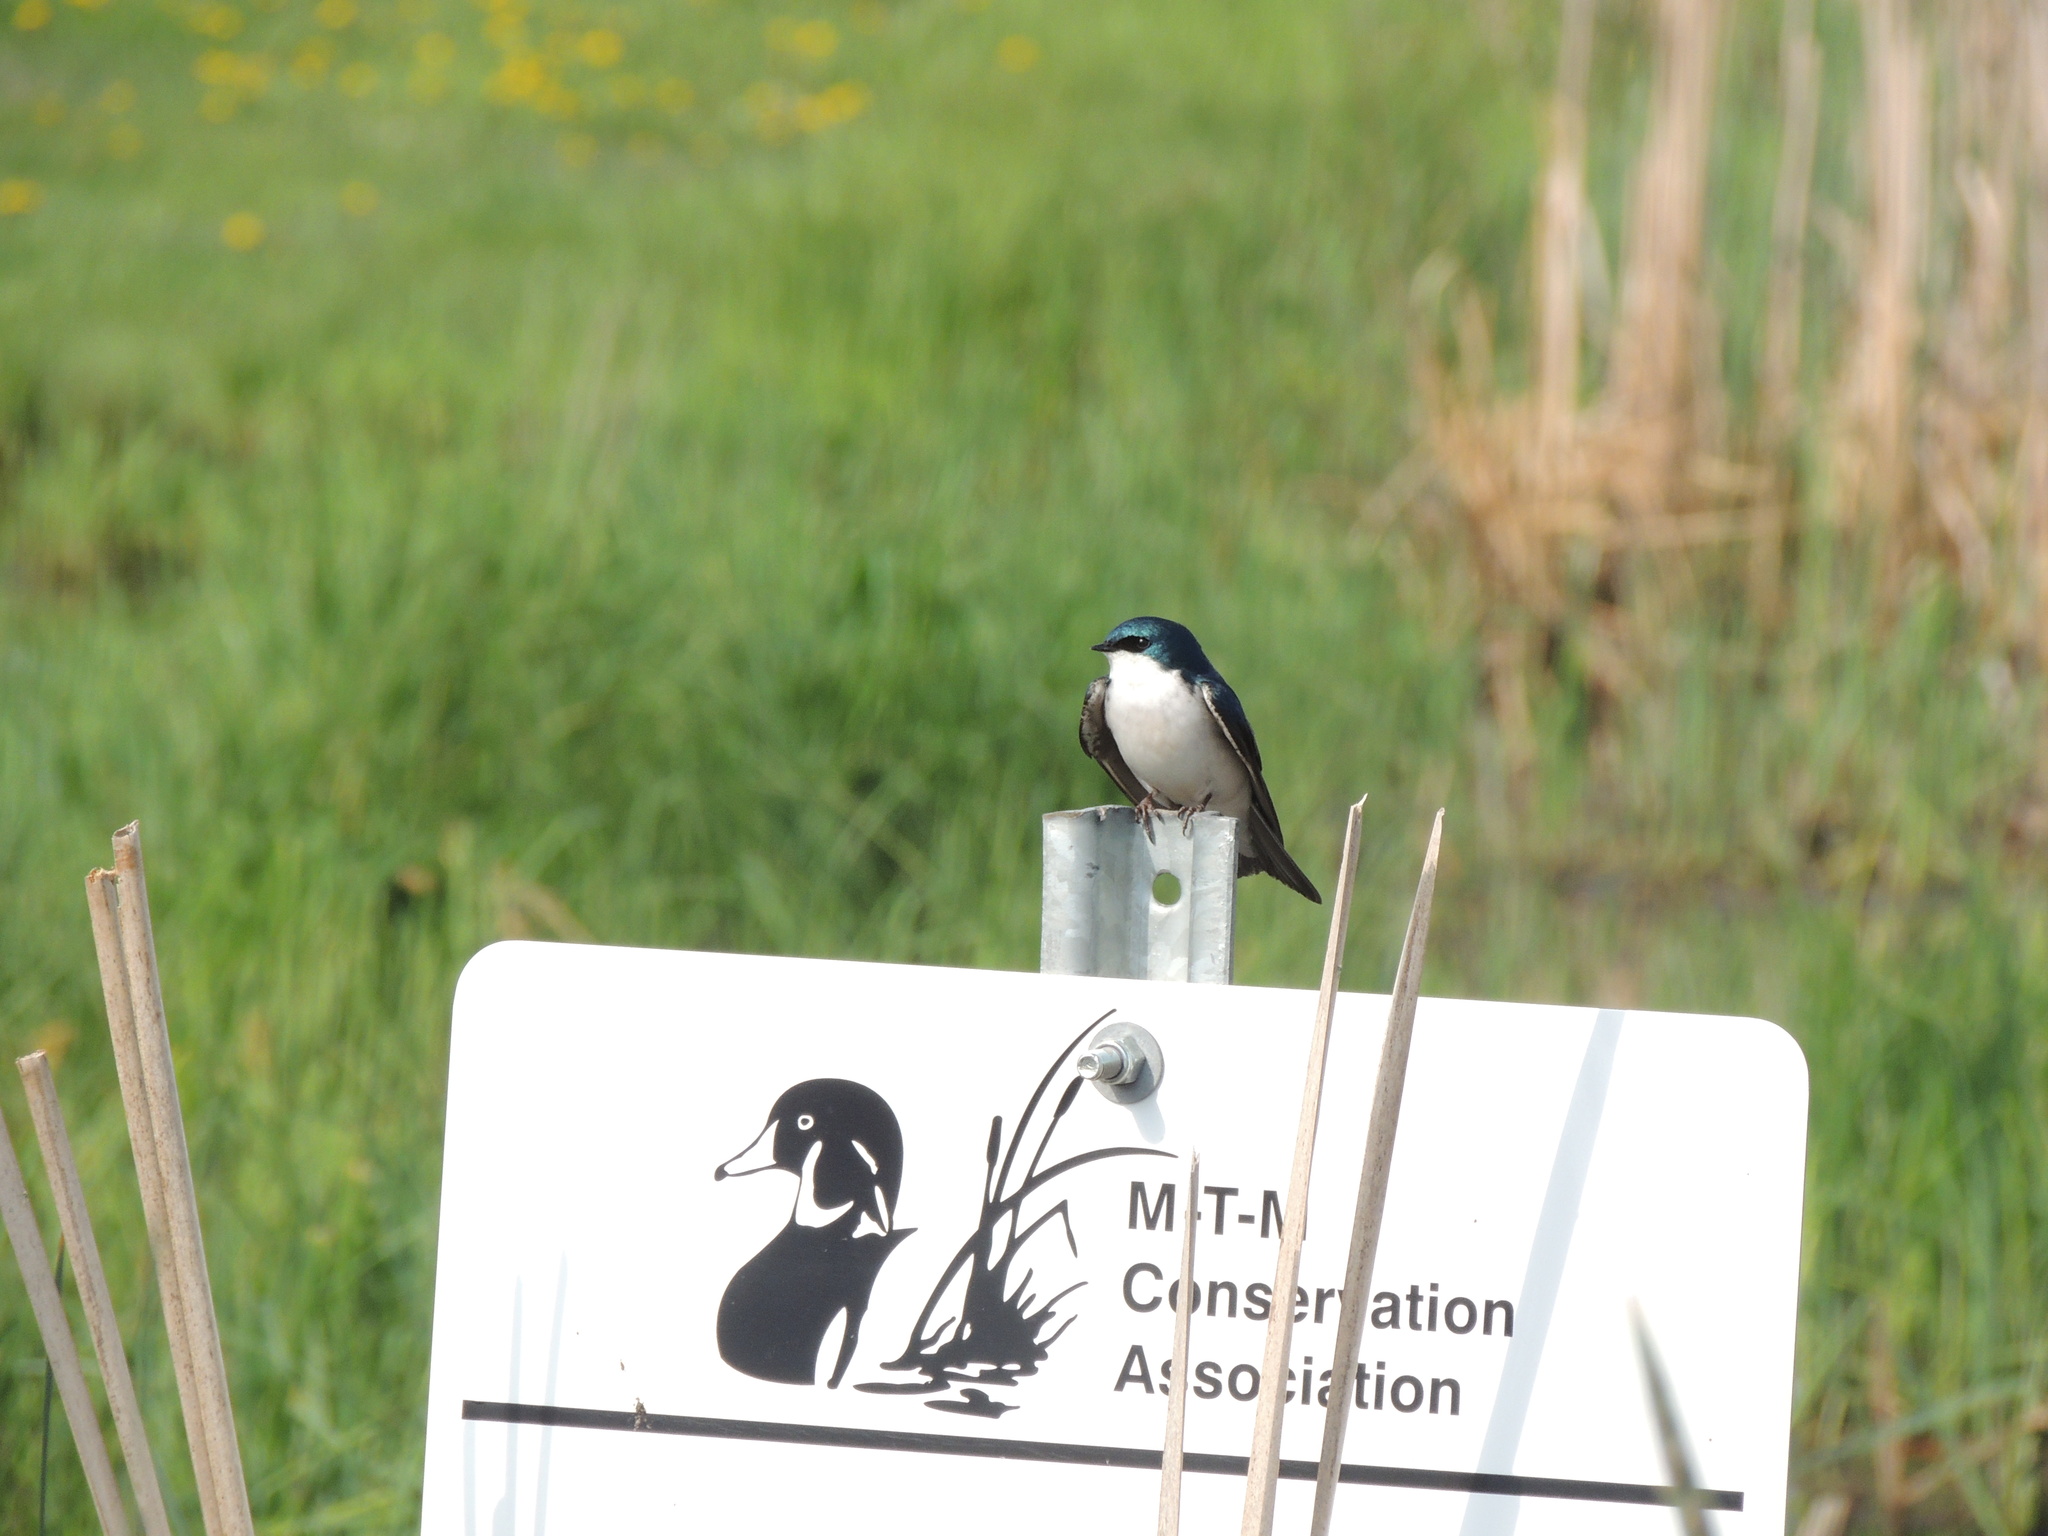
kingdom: Animalia
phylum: Chordata
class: Aves
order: Passeriformes
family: Hirundinidae
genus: Tachycineta
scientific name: Tachycineta bicolor
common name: Tree swallow
